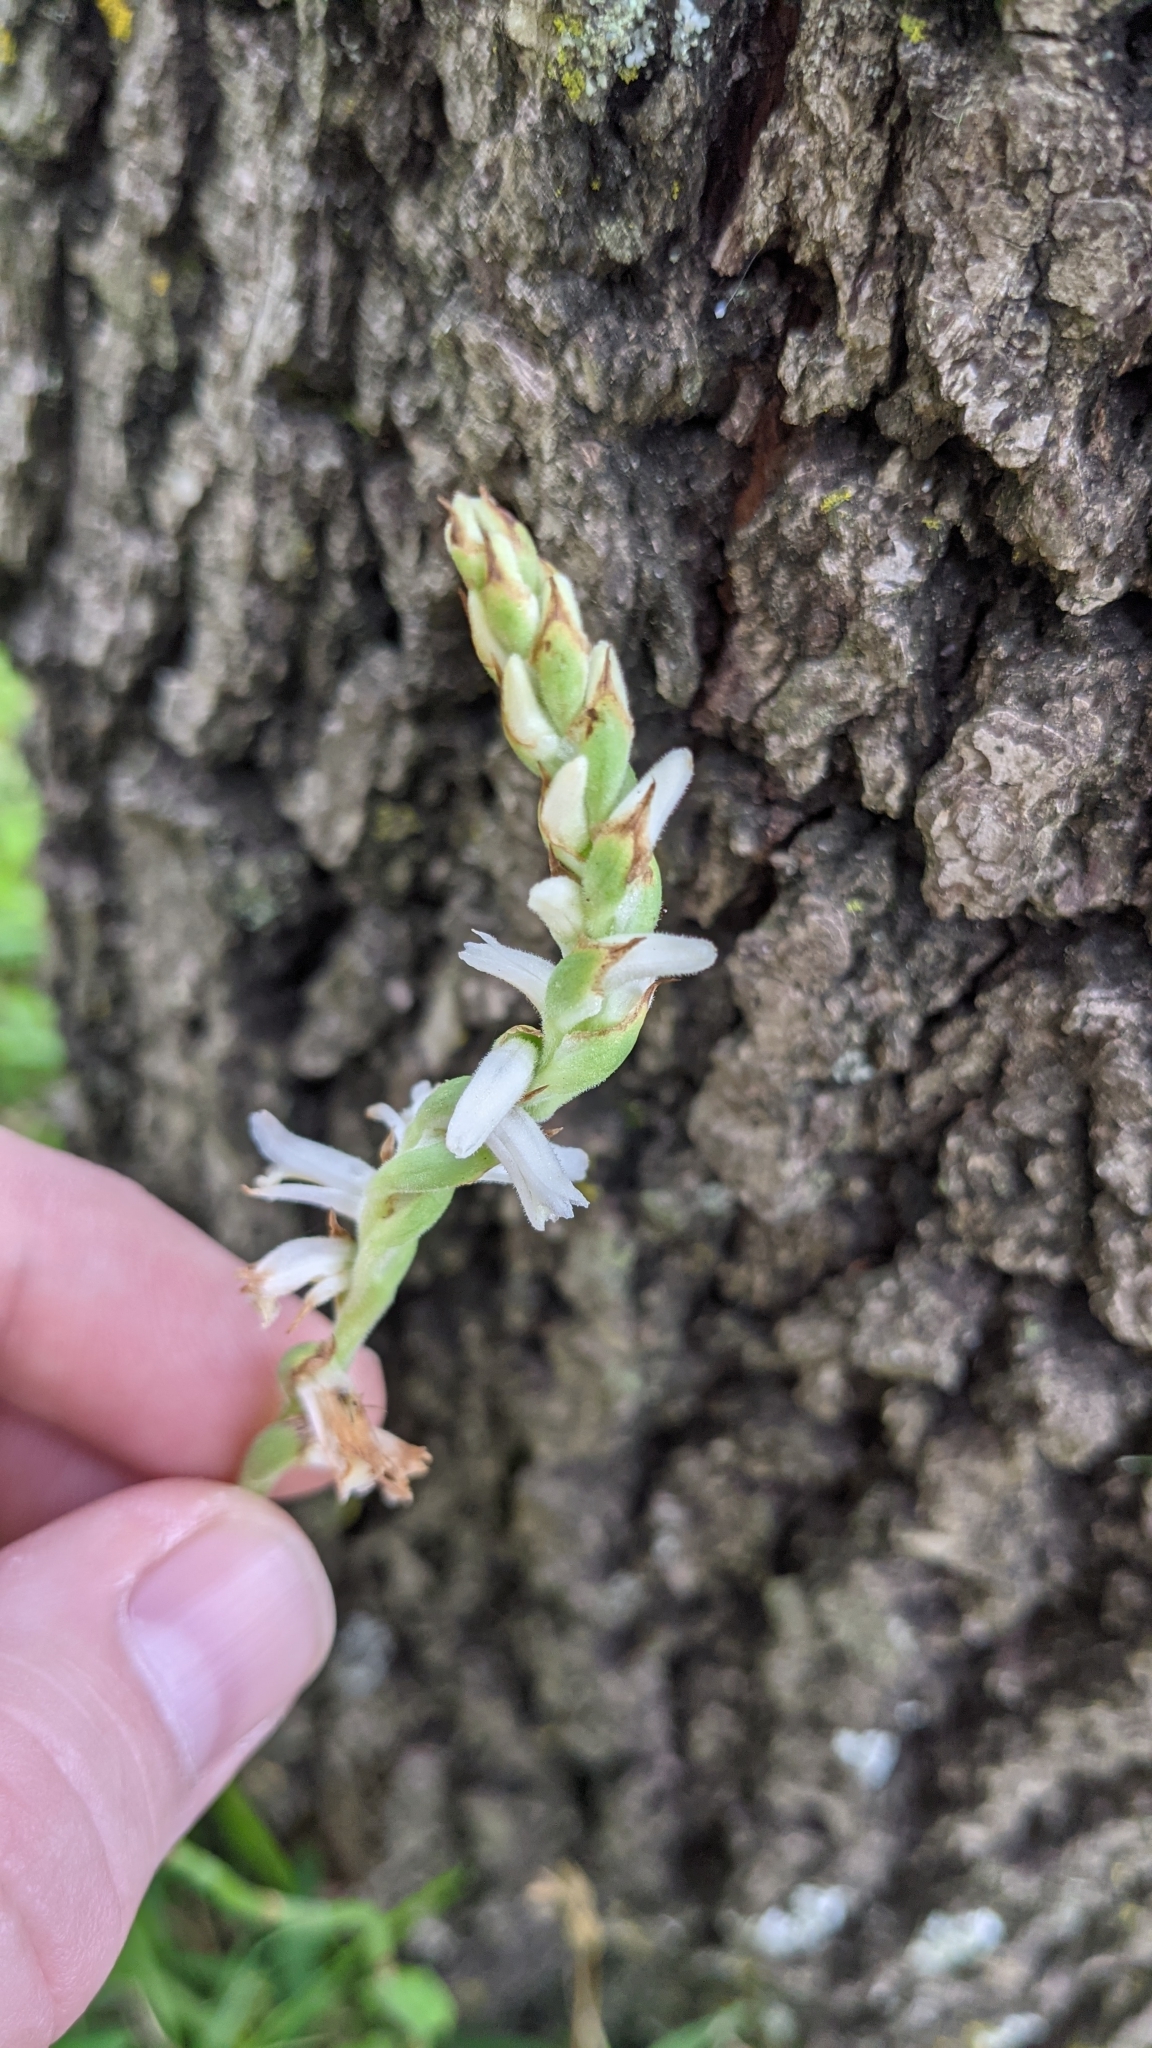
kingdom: Plantae
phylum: Tracheophyta
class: Liliopsida
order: Asparagales
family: Orchidaceae
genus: Spiranthes
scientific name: Spiranthes vernalis
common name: Spring ladies'-tresses
